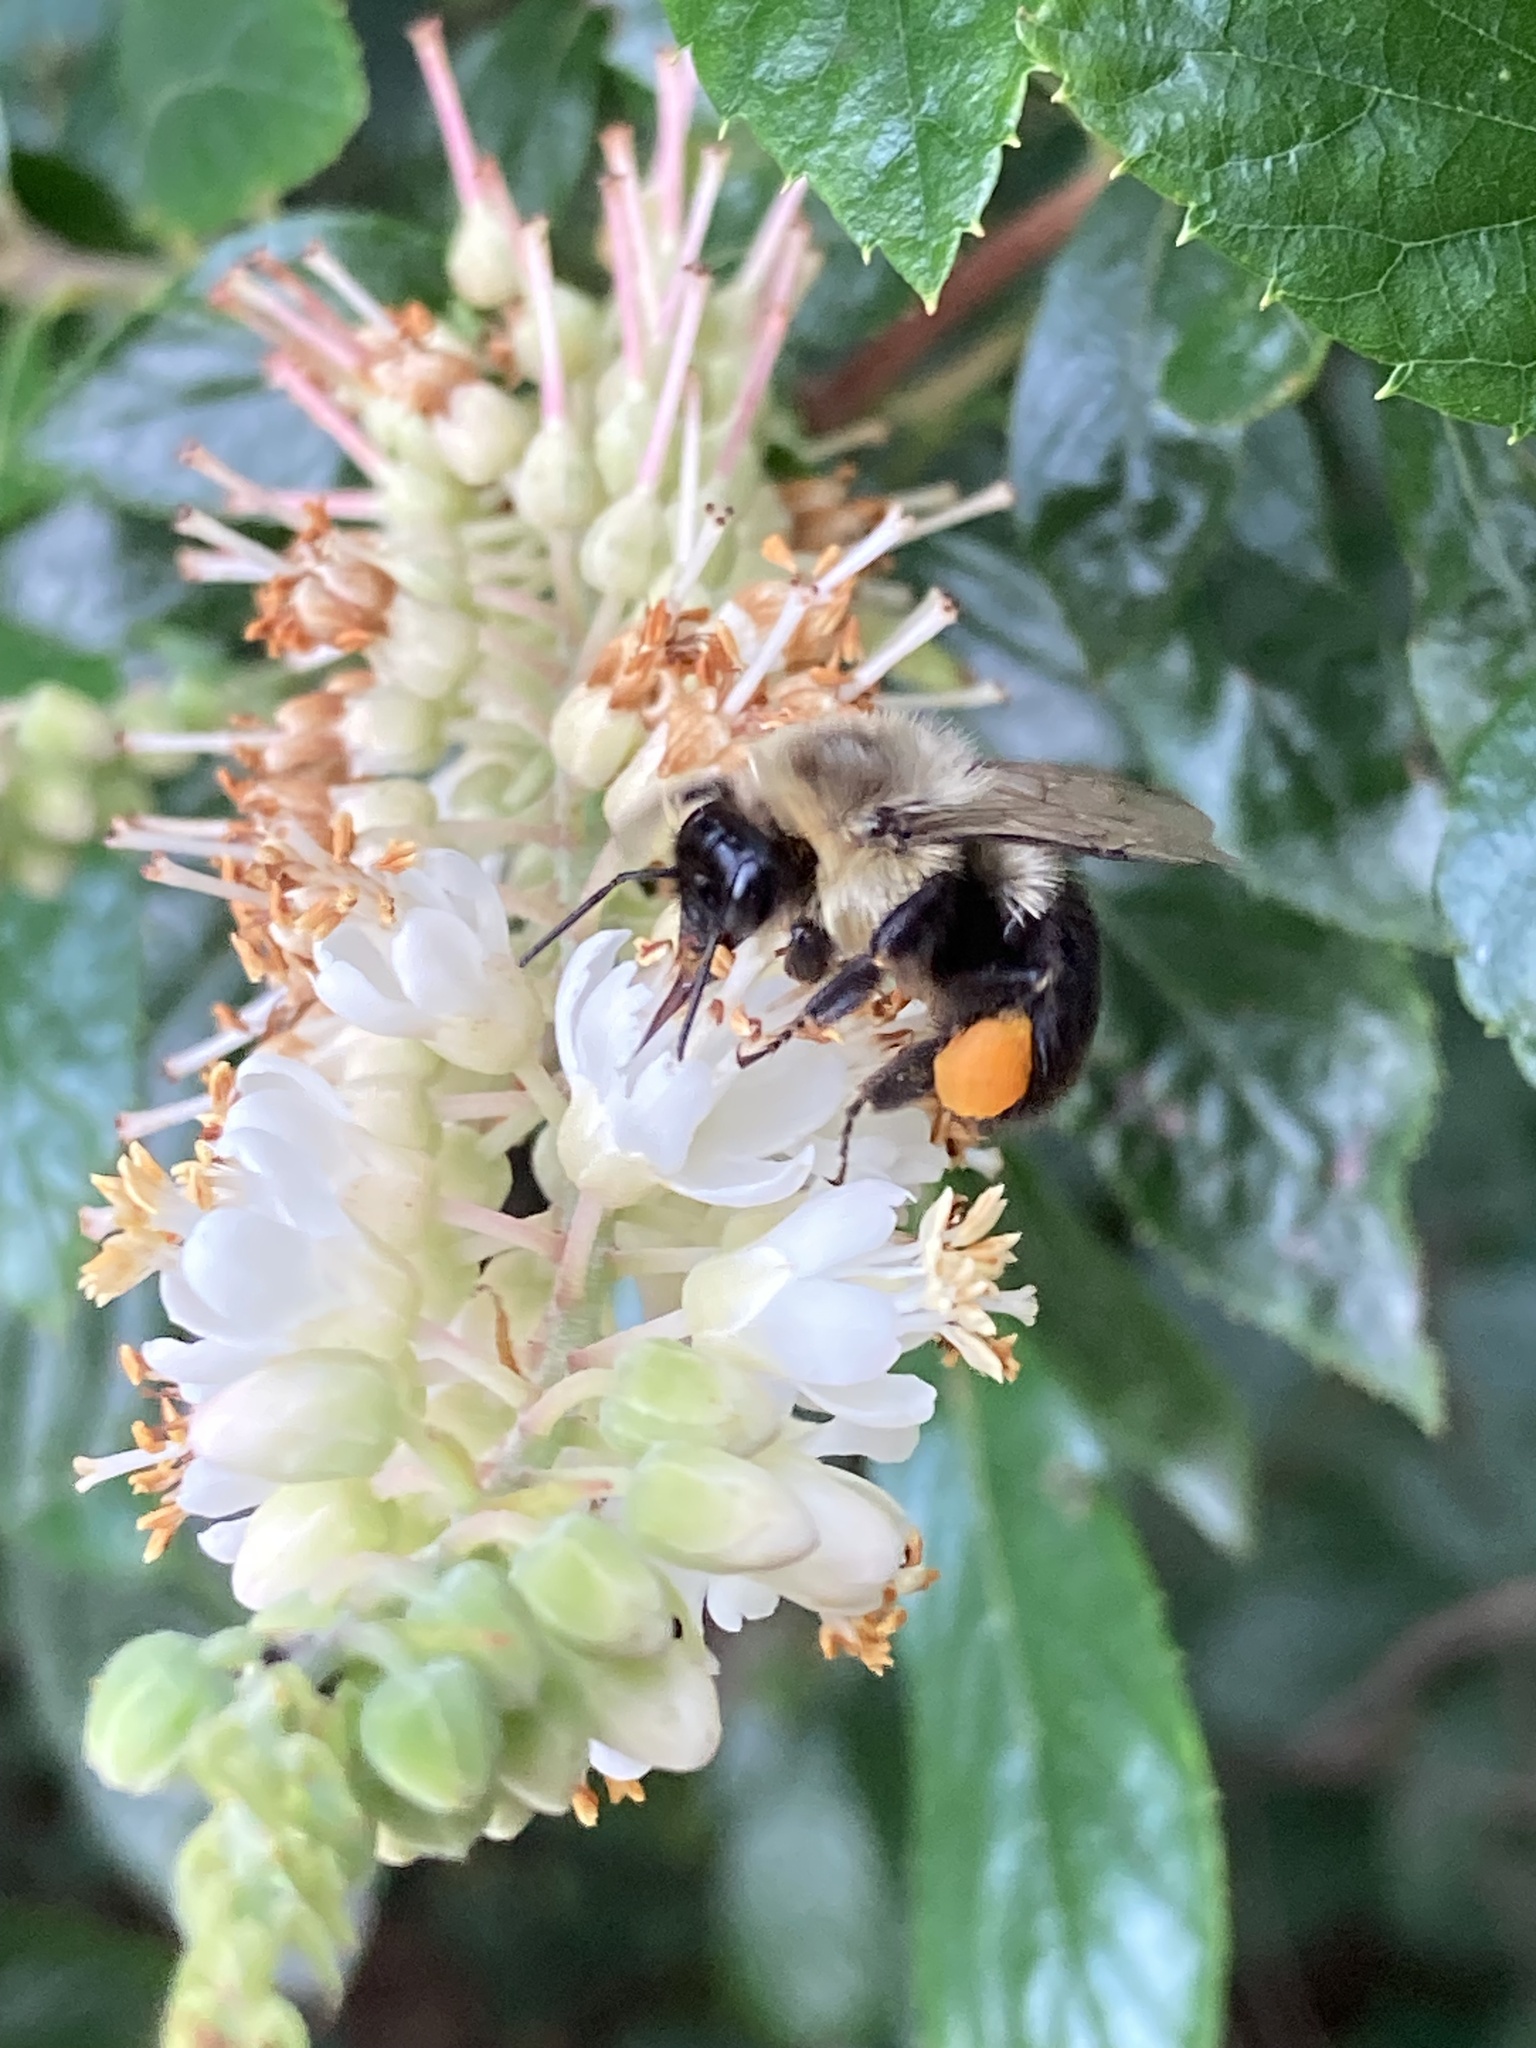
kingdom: Animalia
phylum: Arthropoda
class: Insecta
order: Hymenoptera
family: Apidae
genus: Bombus
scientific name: Bombus impatiens
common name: Common eastern bumble bee
